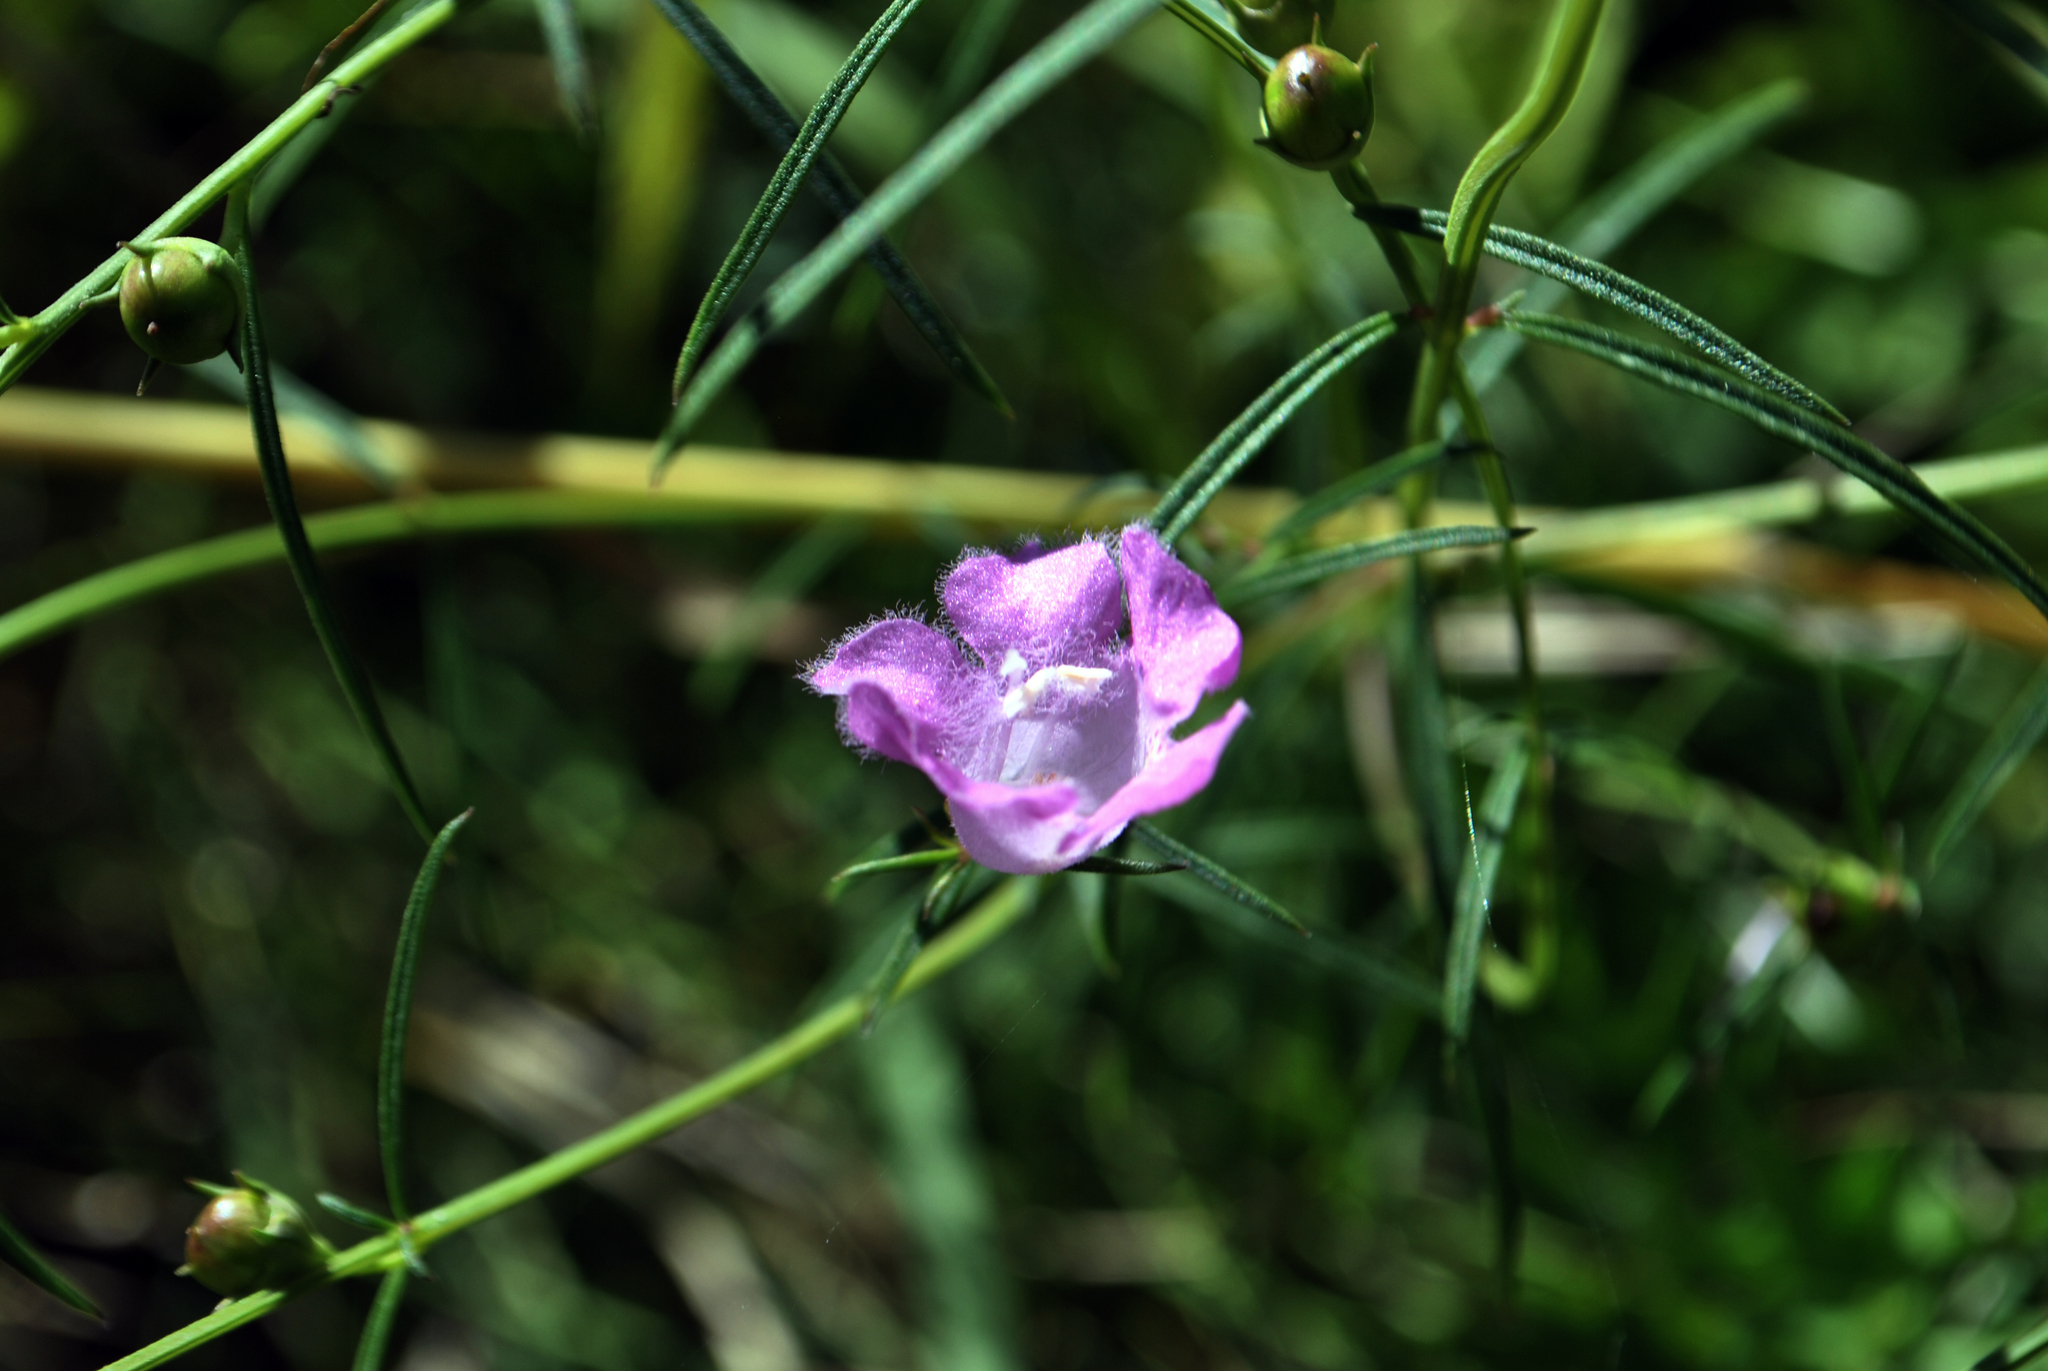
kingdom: Plantae
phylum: Tracheophyta
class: Magnoliopsida
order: Lamiales
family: Orobanchaceae
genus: Agalinis
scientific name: Agalinis purpurea
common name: Purple false foxglove
